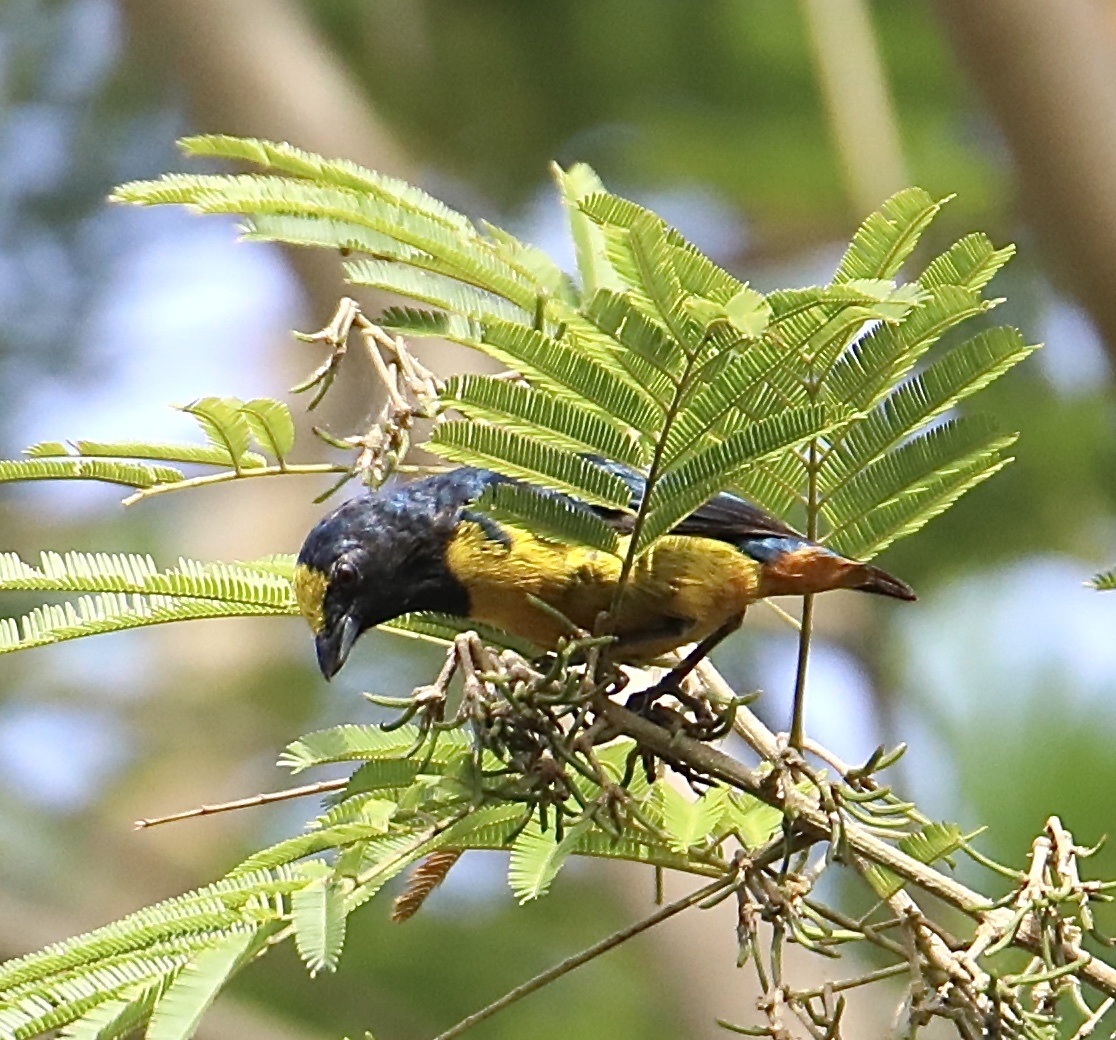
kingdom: Animalia
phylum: Chordata
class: Aves
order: Passeriformes
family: Fringillidae
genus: Euphonia
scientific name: Euphonia fulvicrissa
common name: Fulvous-vented euphonia
